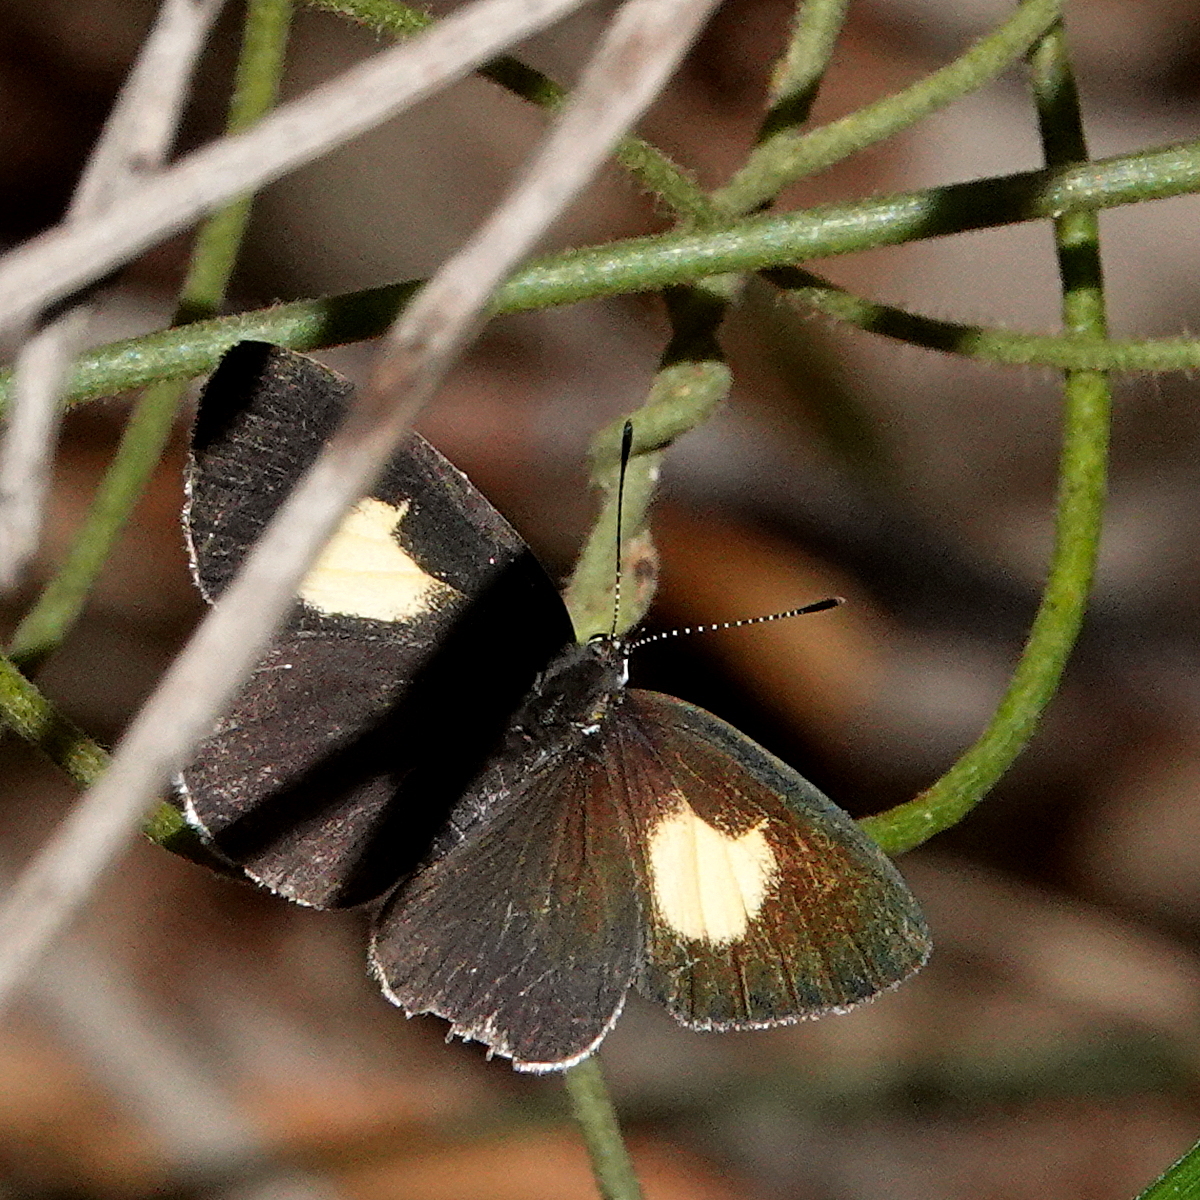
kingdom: Animalia
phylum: Arthropoda
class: Insecta
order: Lepidoptera
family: Lycaenidae
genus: Candalides
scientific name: Candalides xanthospilos
